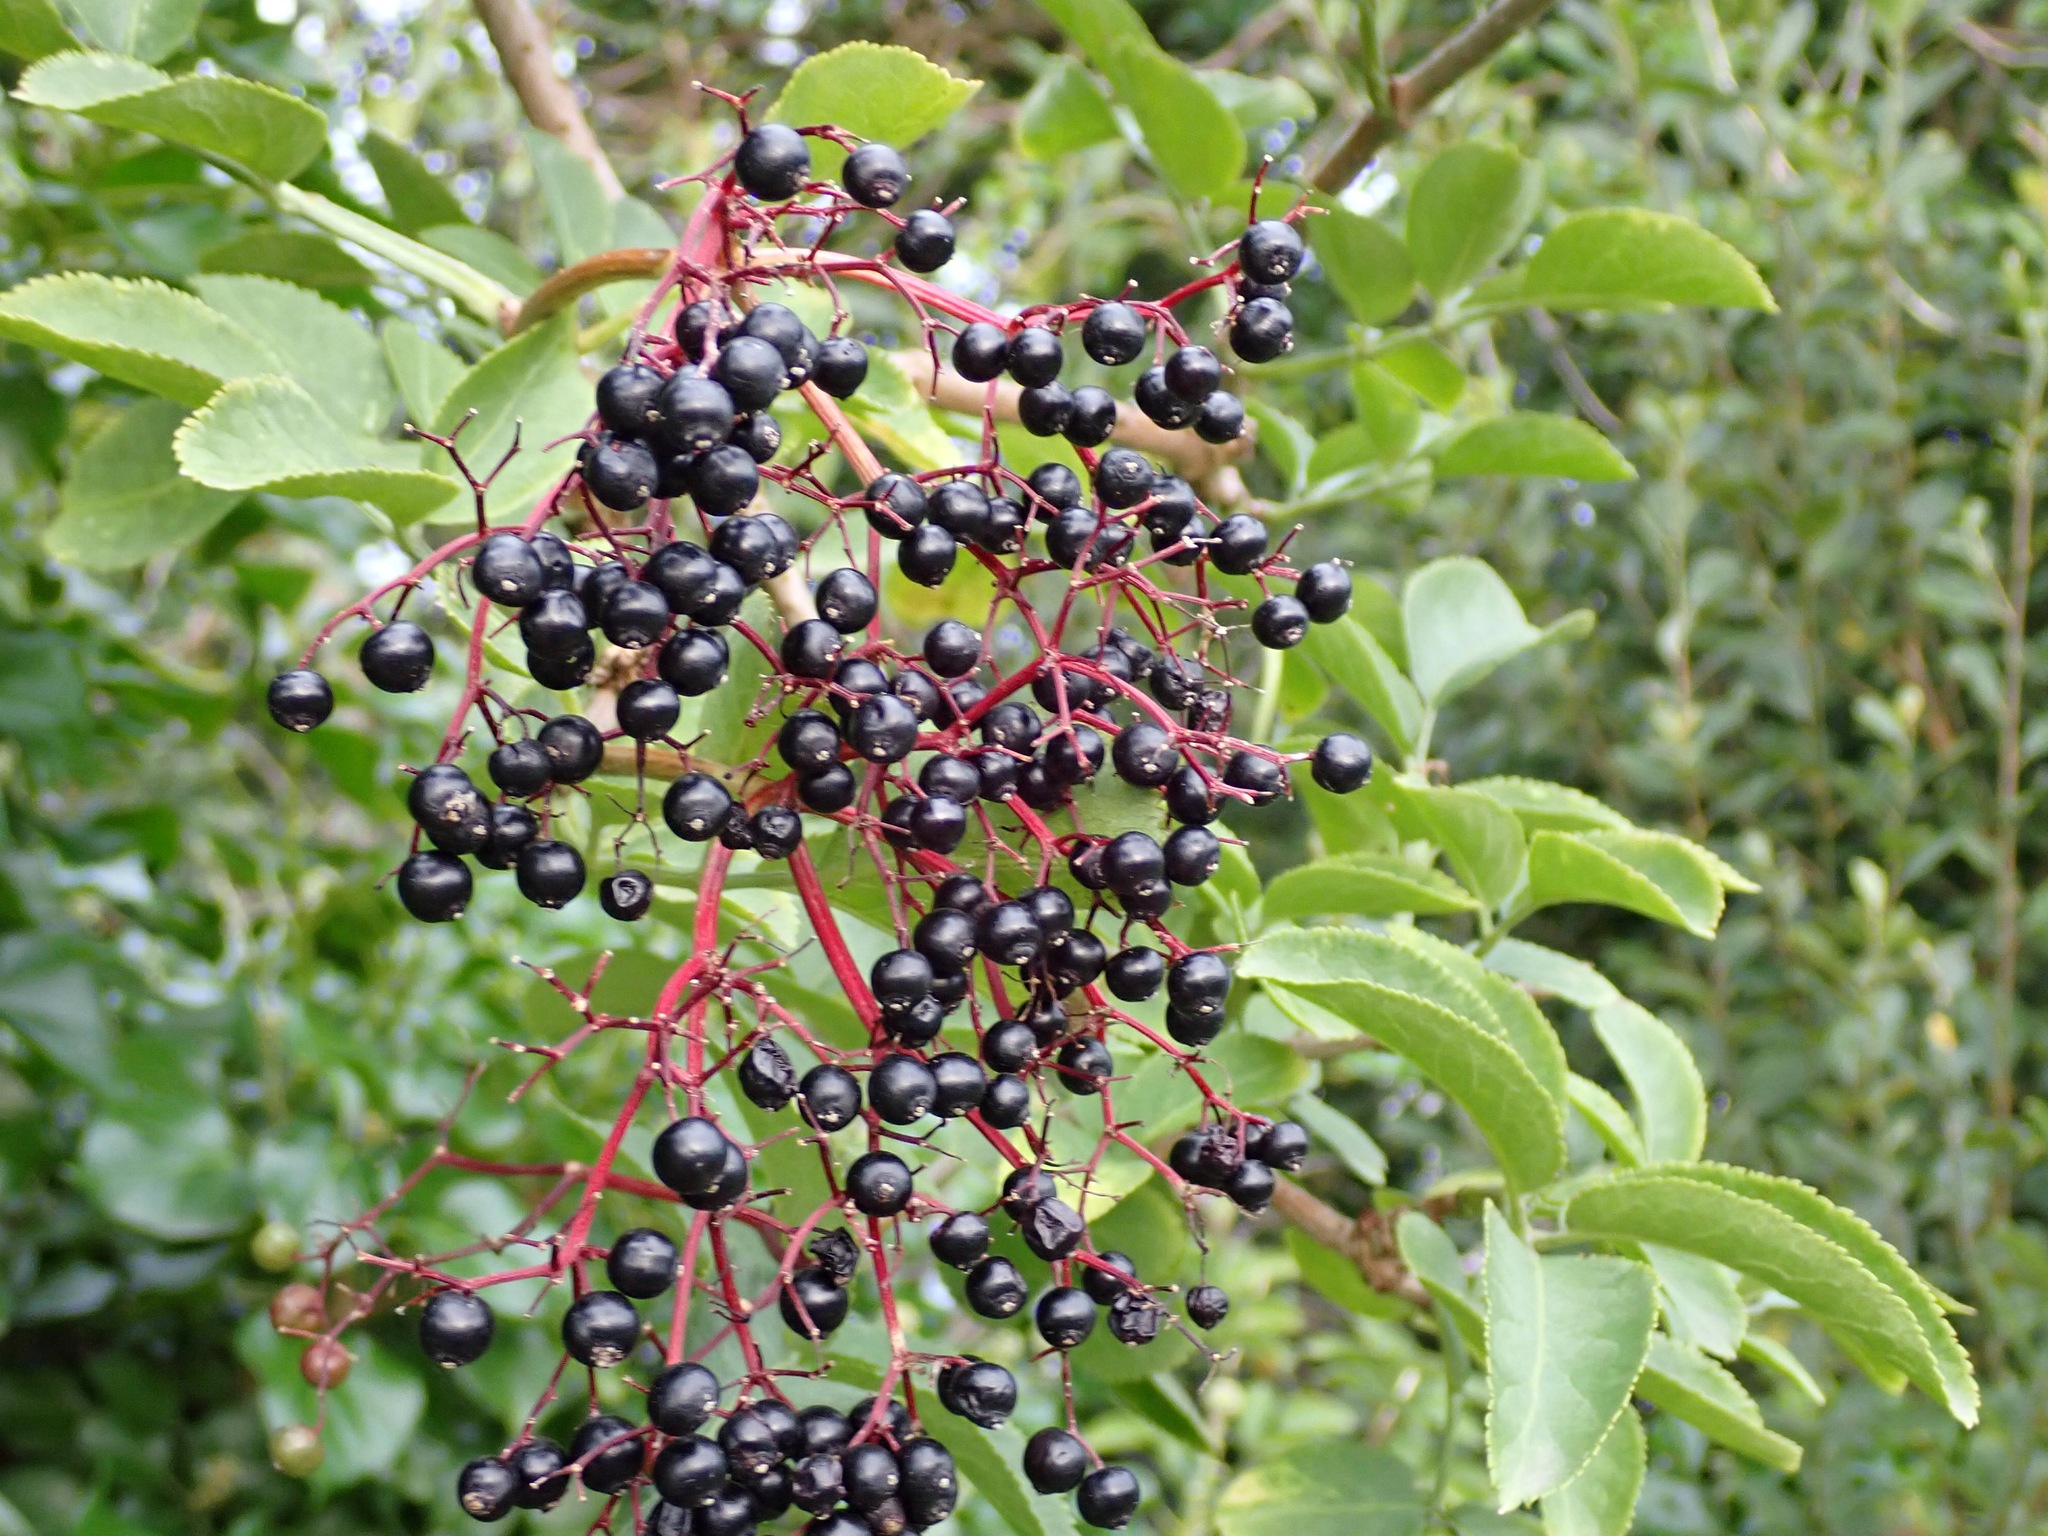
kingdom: Plantae
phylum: Tracheophyta
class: Magnoliopsida
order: Dipsacales
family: Viburnaceae
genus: Sambucus
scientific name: Sambucus nigra
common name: Elder
